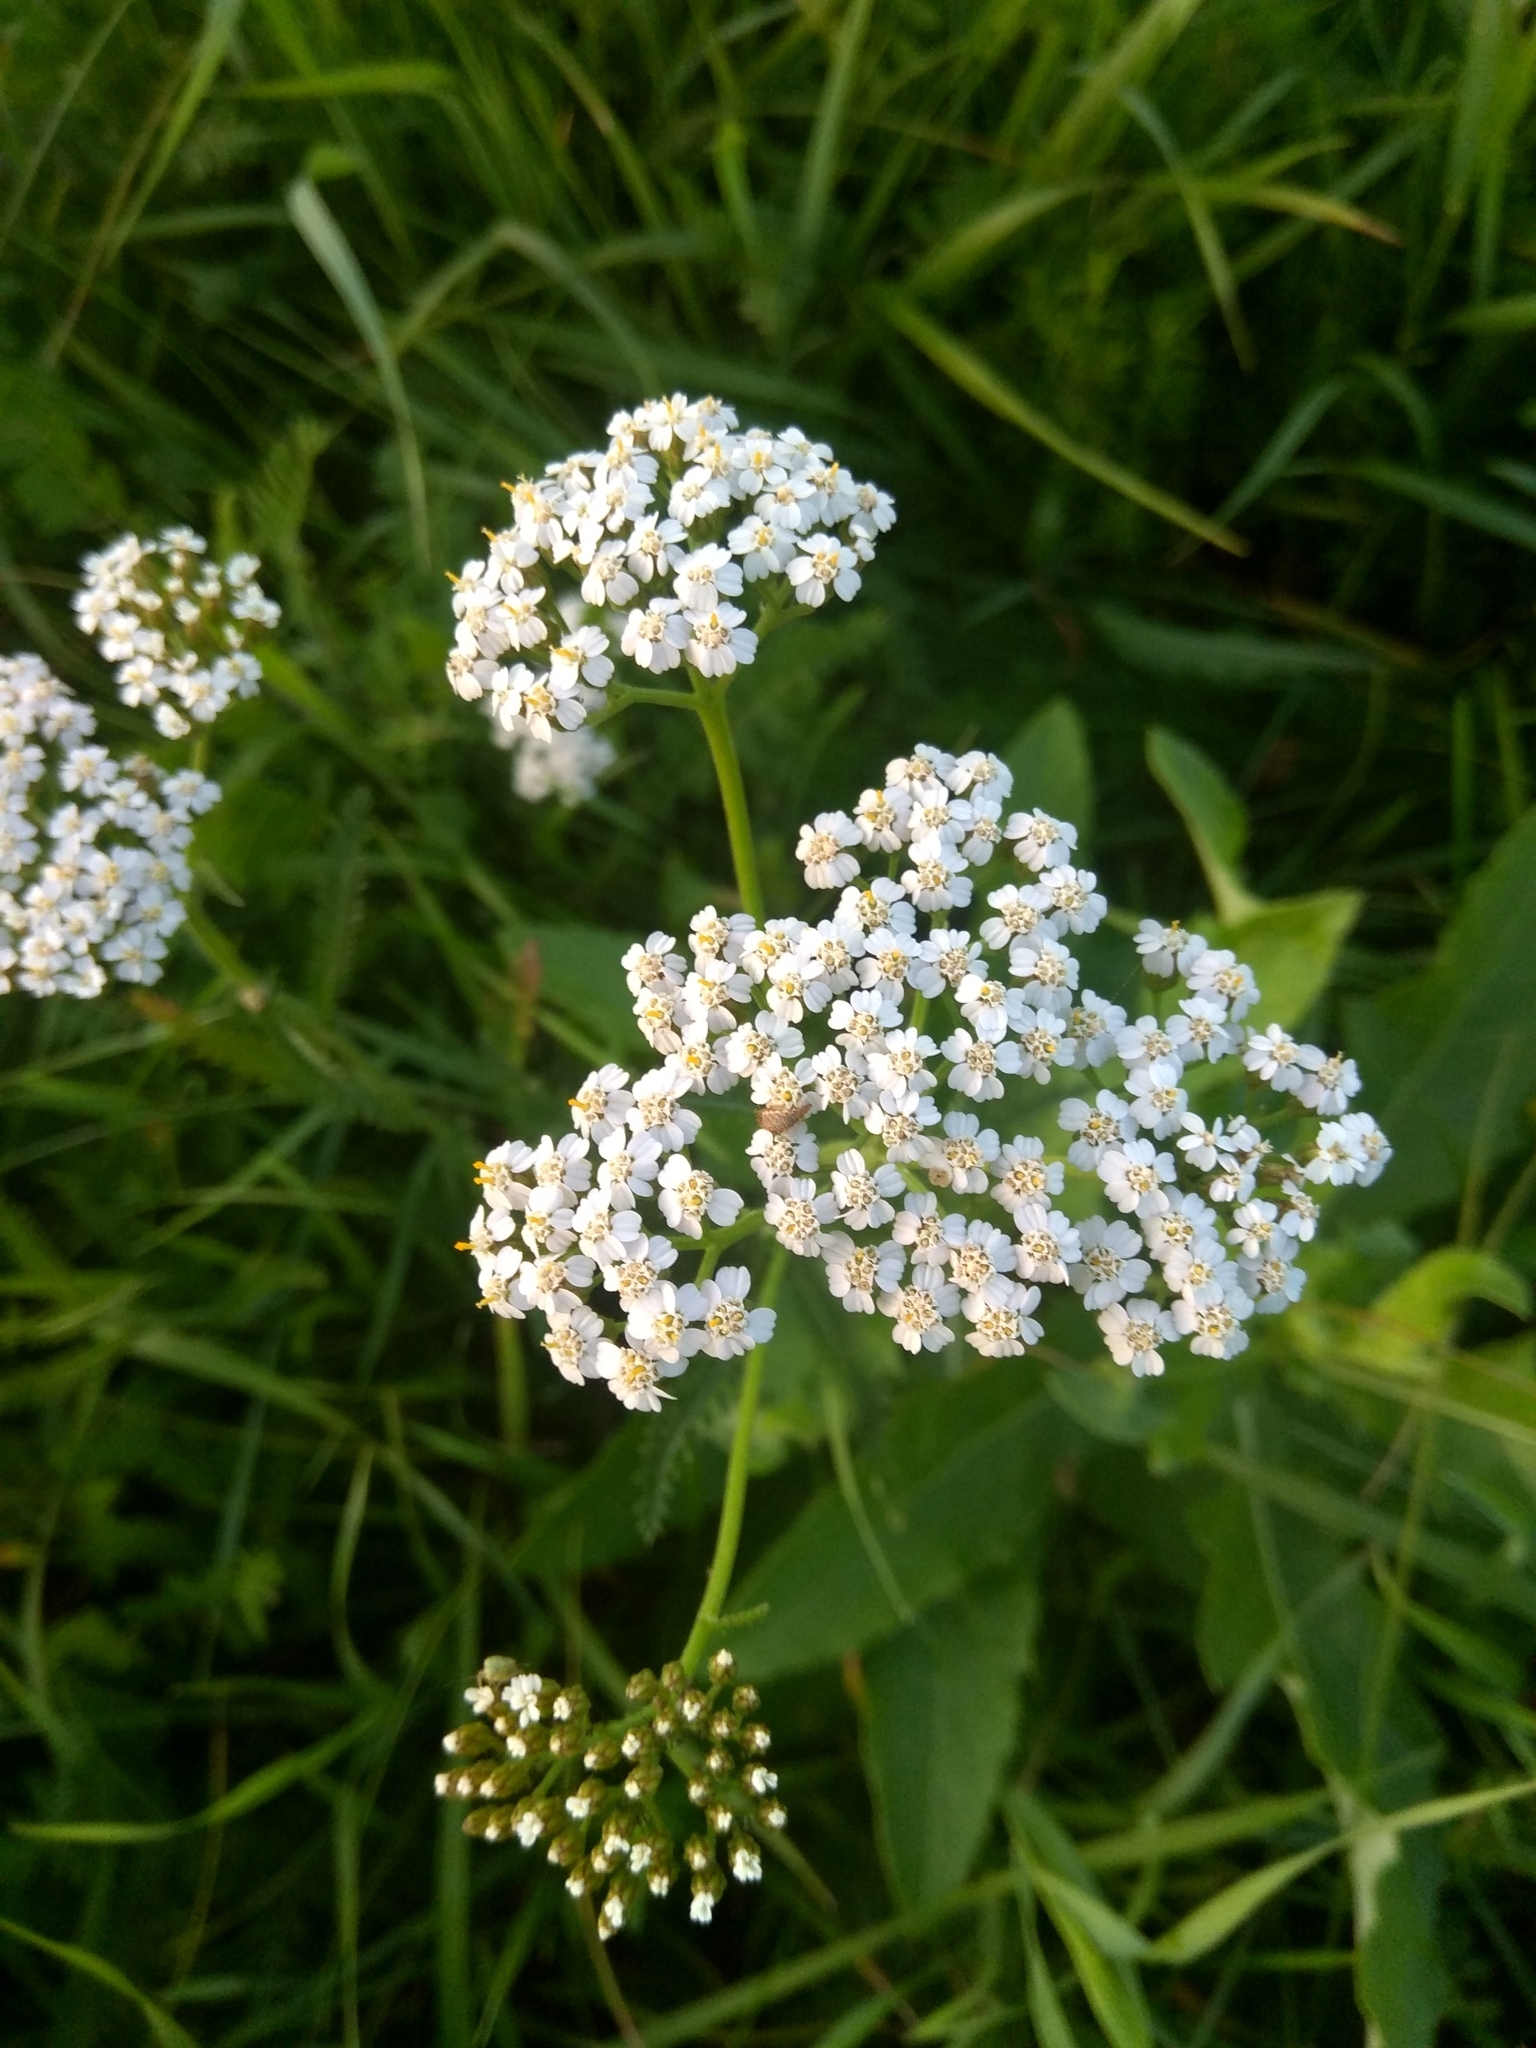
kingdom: Plantae
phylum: Tracheophyta
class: Magnoliopsida
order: Asterales
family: Asteraceae
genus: Achillea
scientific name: Achillea millefolium
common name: Yarrow
